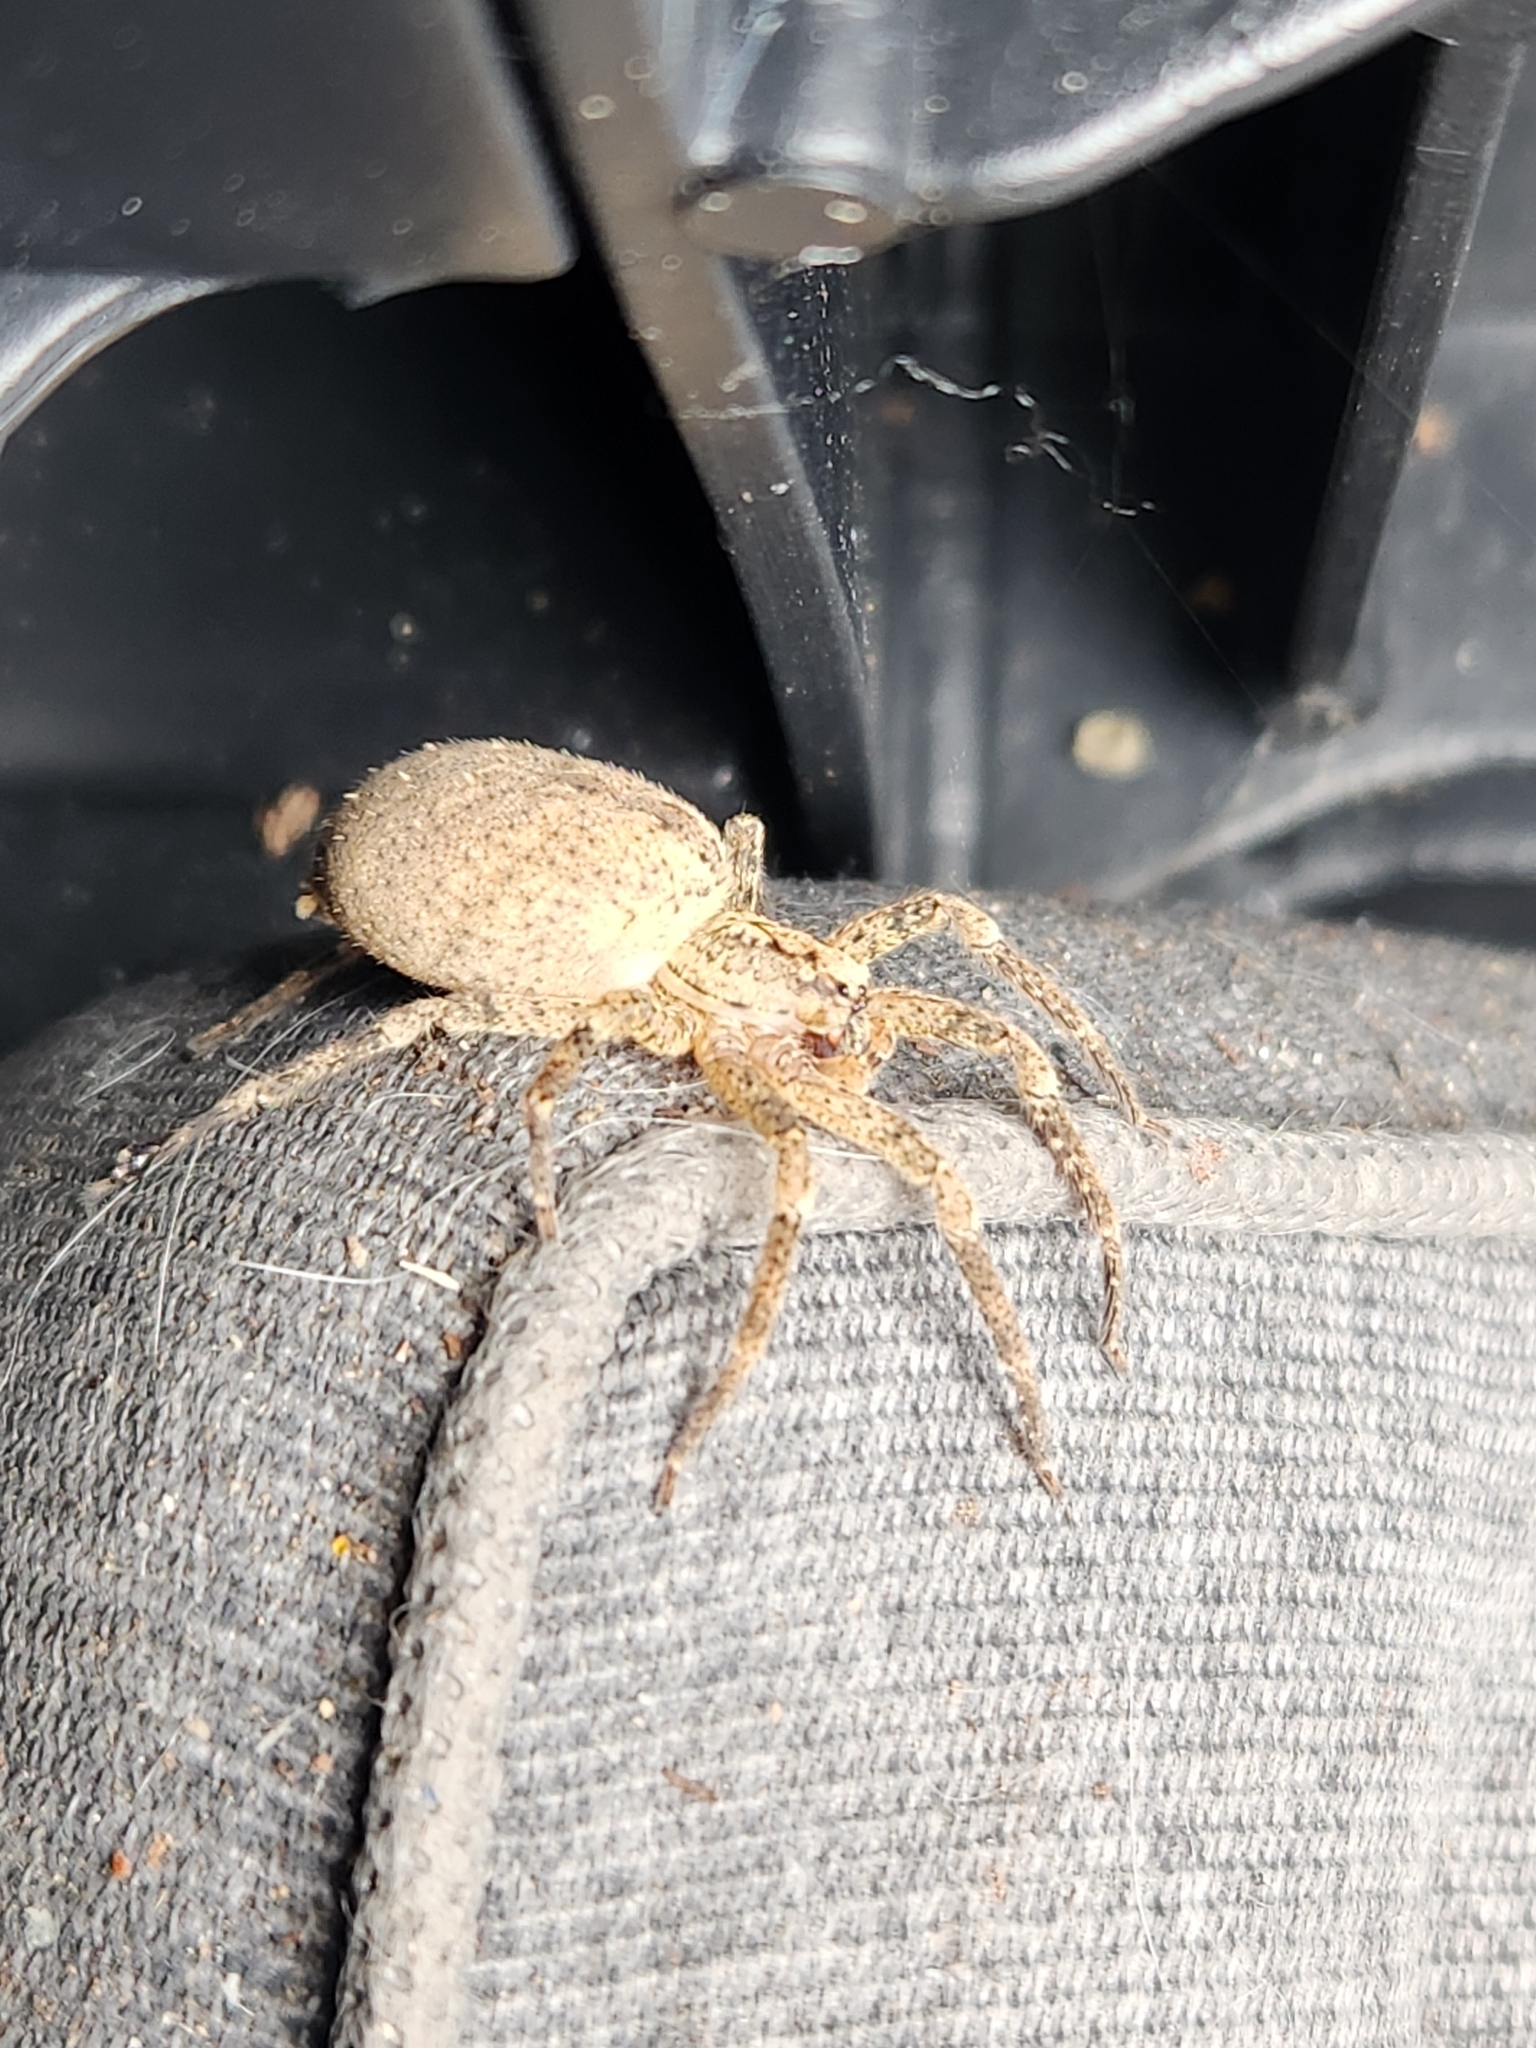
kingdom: Animalia
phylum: Arthropoda
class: Arachnida
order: Araneae
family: Zoropsidae
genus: Zoropsis
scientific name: Zoropsis spinimana
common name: Zoropsid spider
